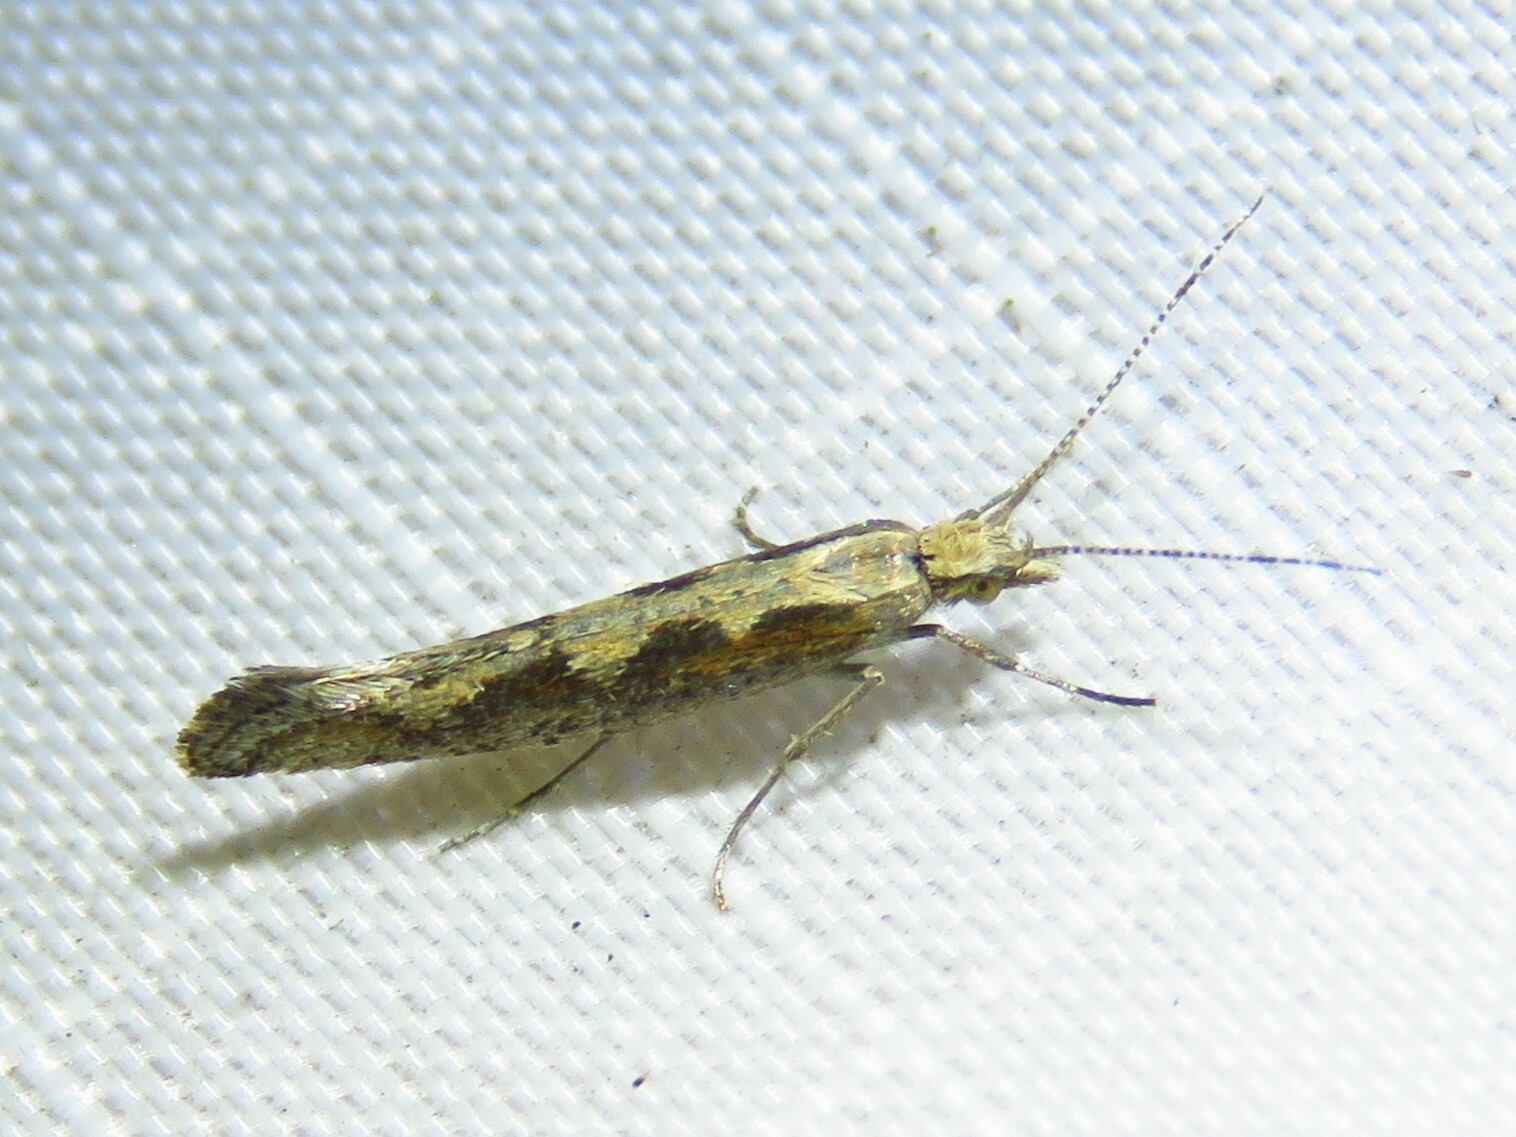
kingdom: Animalia
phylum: Arthropoda
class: Insecta
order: Lepidoptera
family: Plutellidae
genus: Plutella
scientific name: Plutella xylostella
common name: Diamond-back moth
